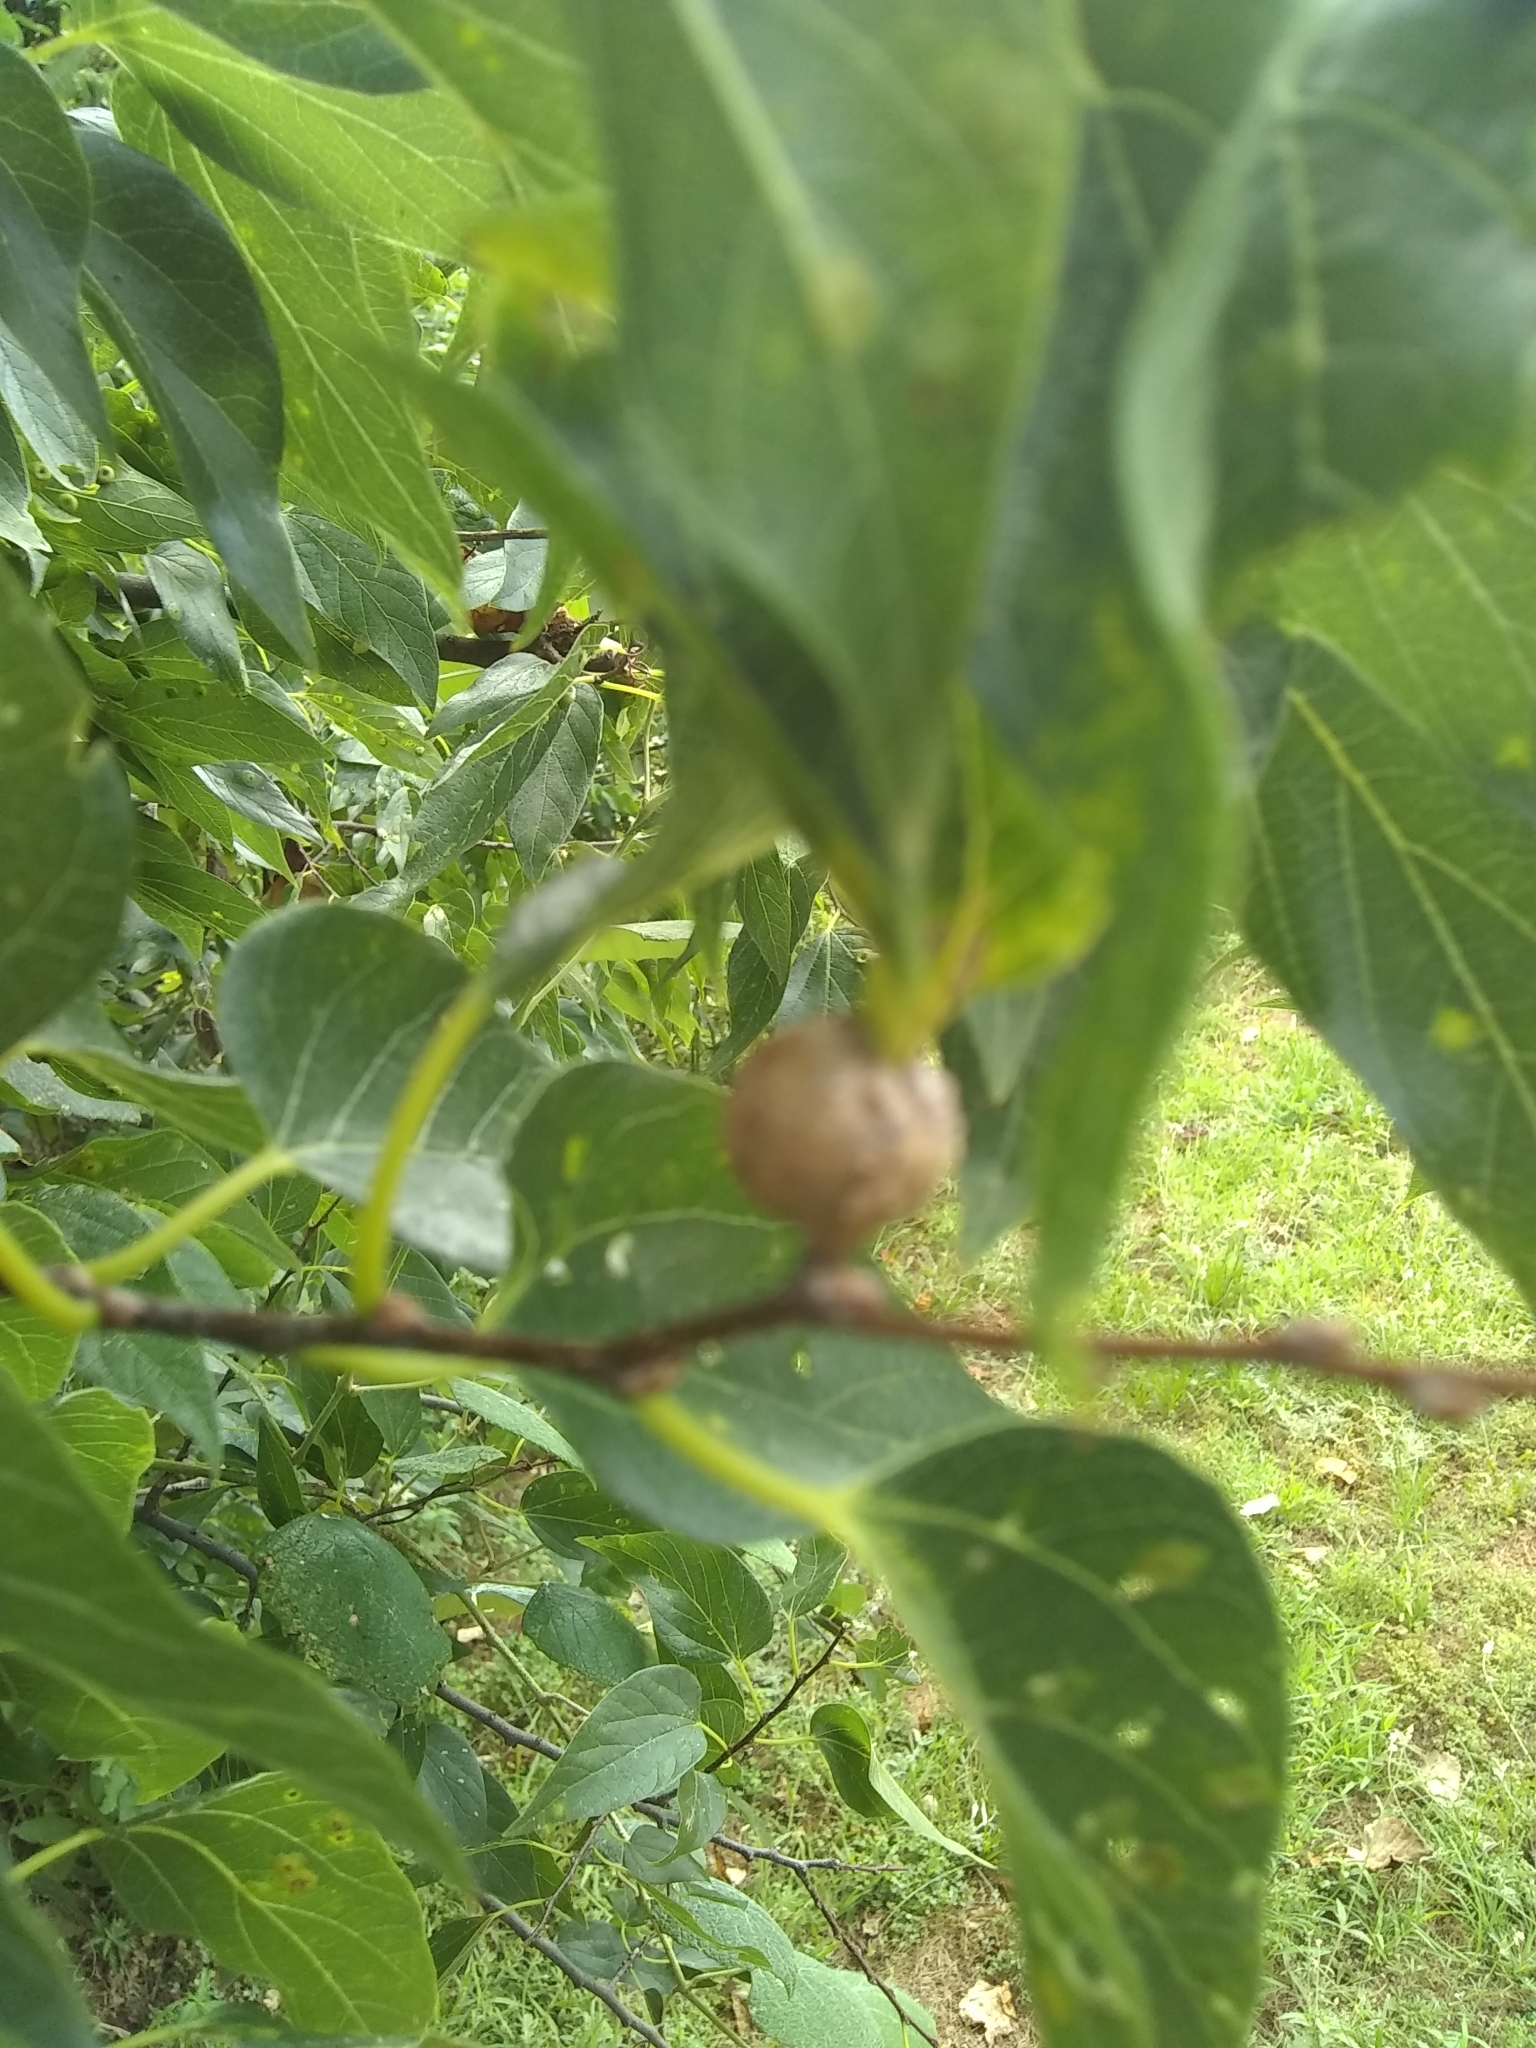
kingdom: Animalia
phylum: Arthropoda
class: Insecta
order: Hemiptera
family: Aphalaridae
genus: Pachypsylla
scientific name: Pachypsylla venusta
